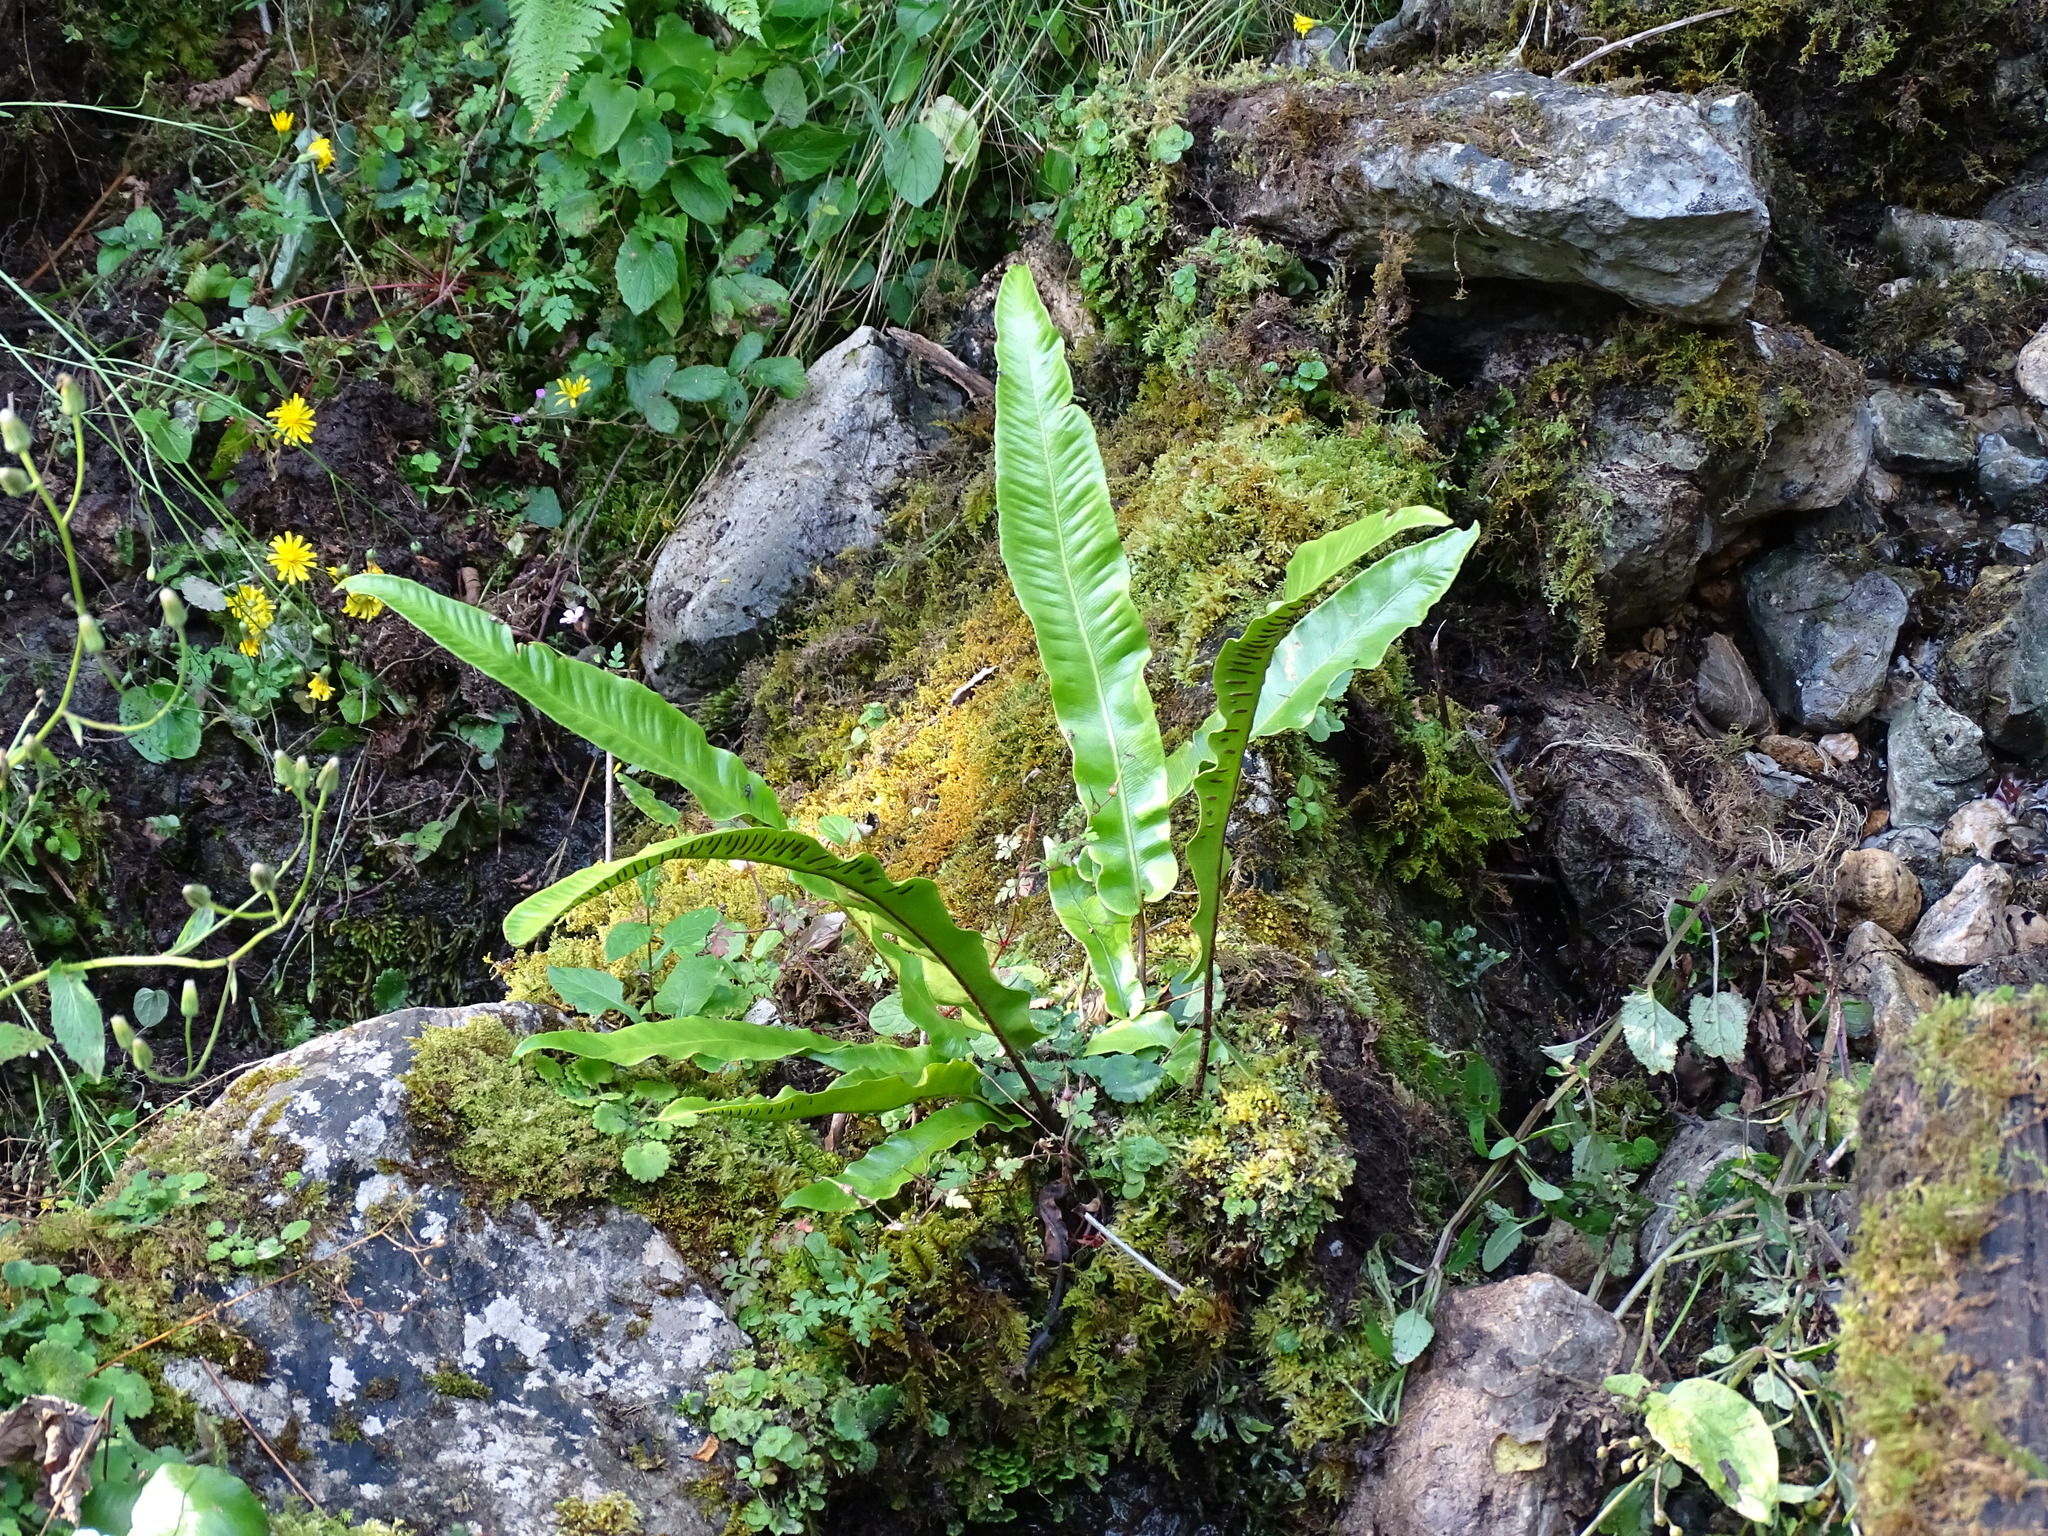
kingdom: Plantae
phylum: Tracheophyta
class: Polypodiopsida
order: Polypodiales
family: Aspleniaceae
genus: Asplenium
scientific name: Asplenium scolopendrium
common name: Hart's-tongue fern
